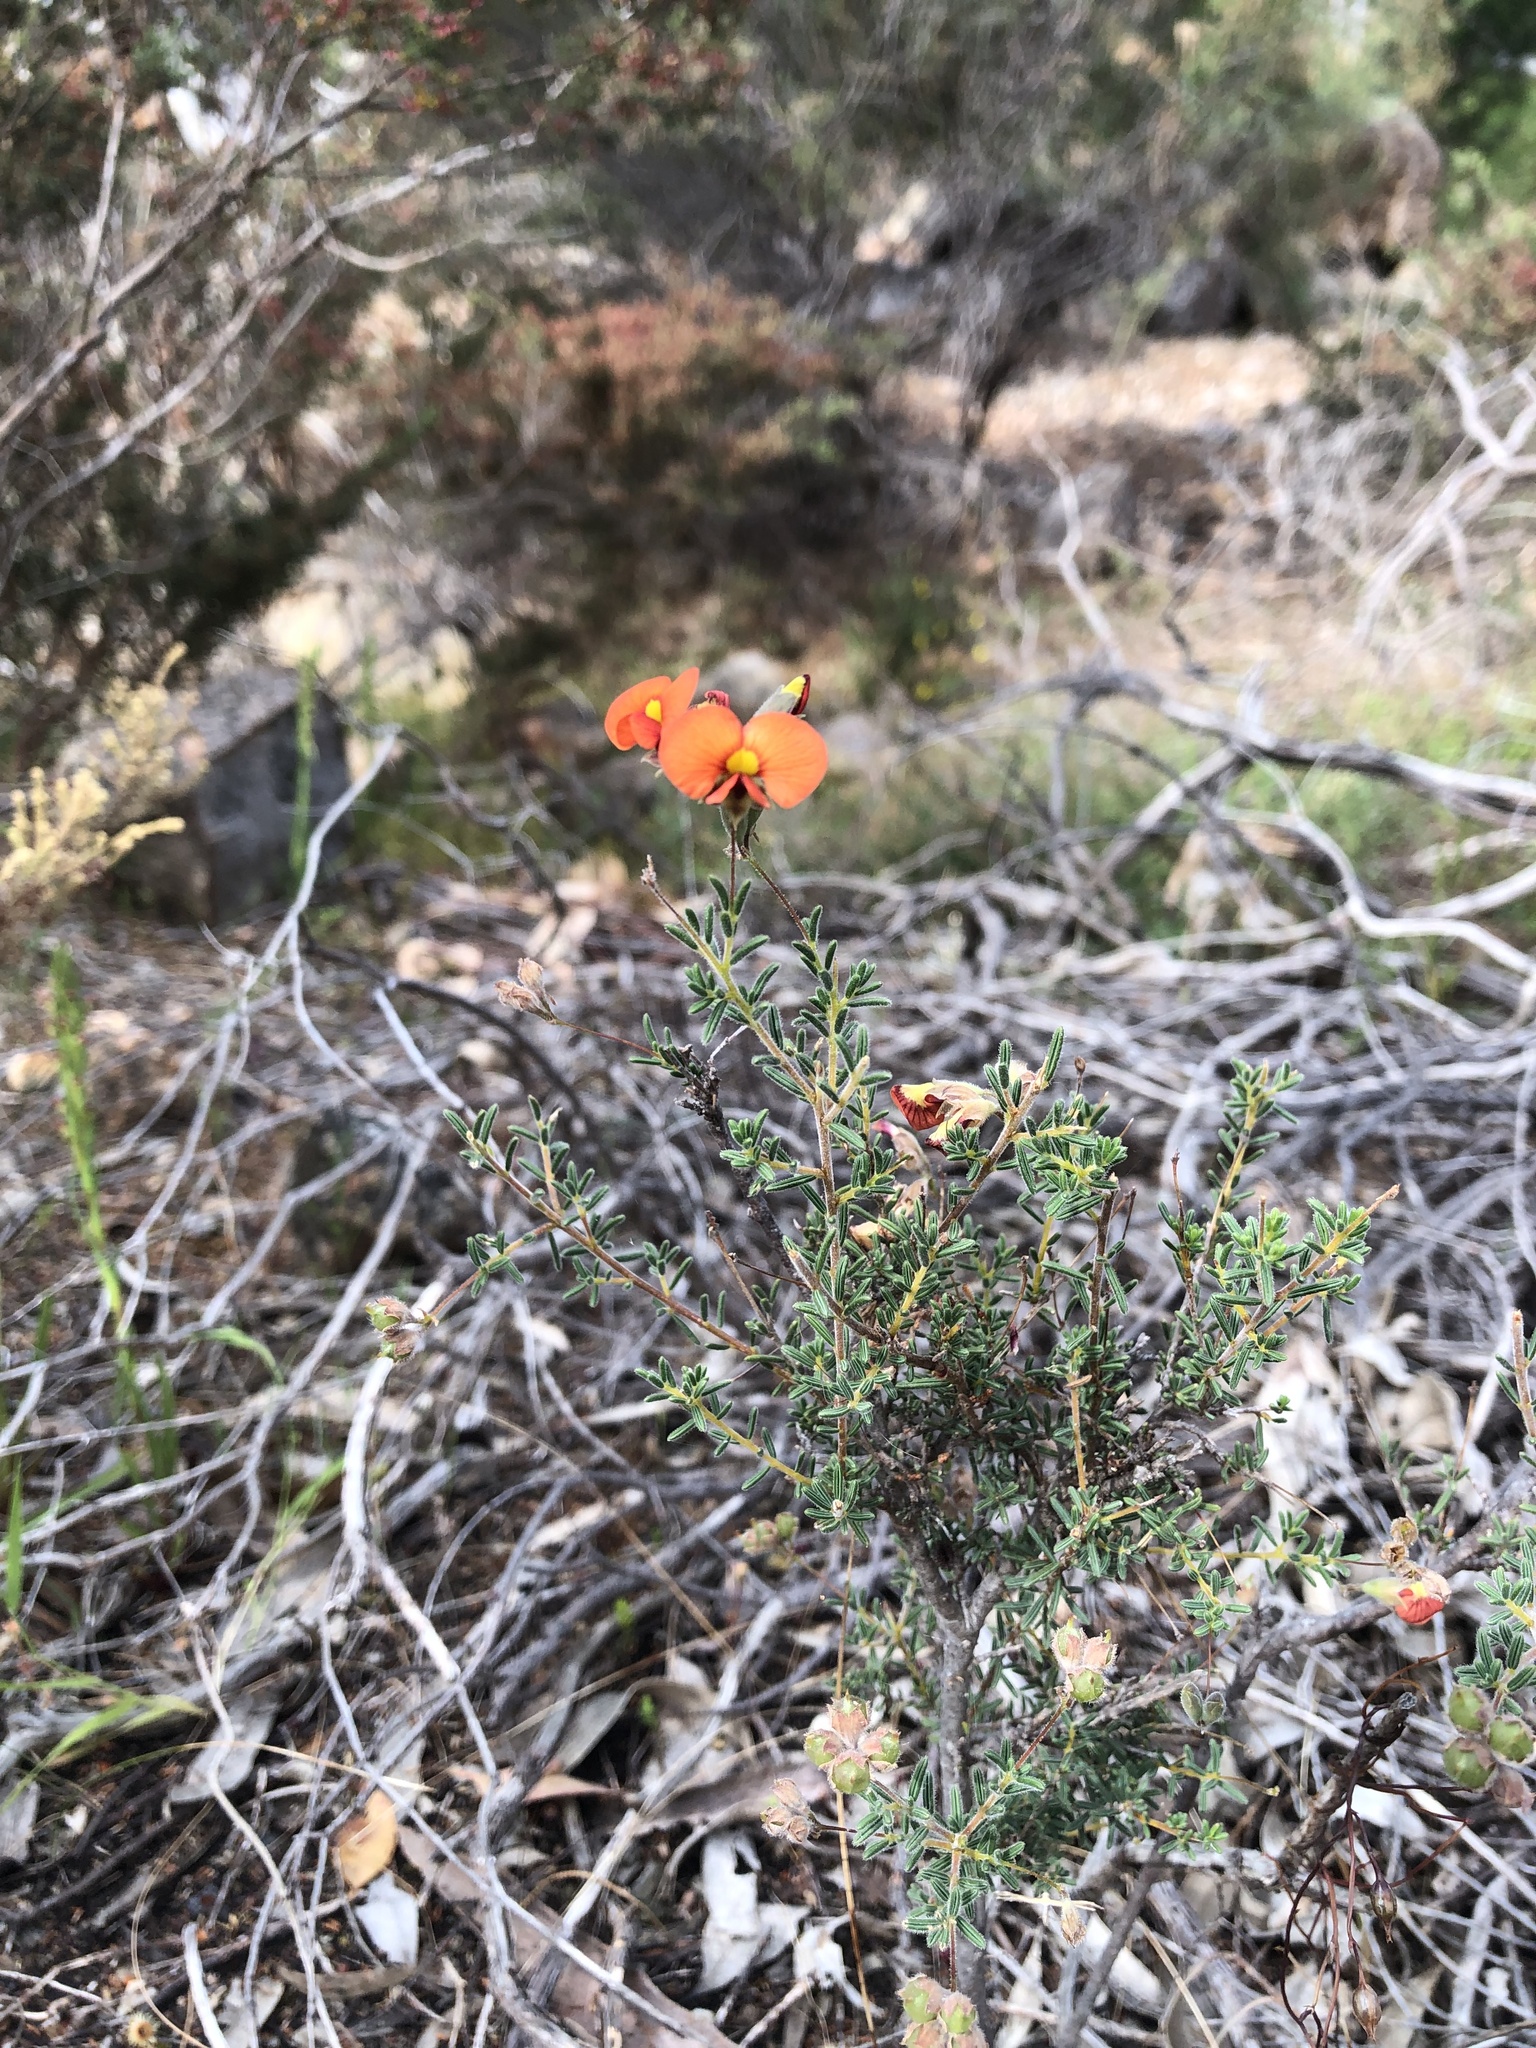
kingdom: Plantae
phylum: Tracheophyta
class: Magnoliopsida
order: Fabales
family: Fabaceae
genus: Dillwynia
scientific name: Dillwynia hispida
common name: Red parrot-pea
